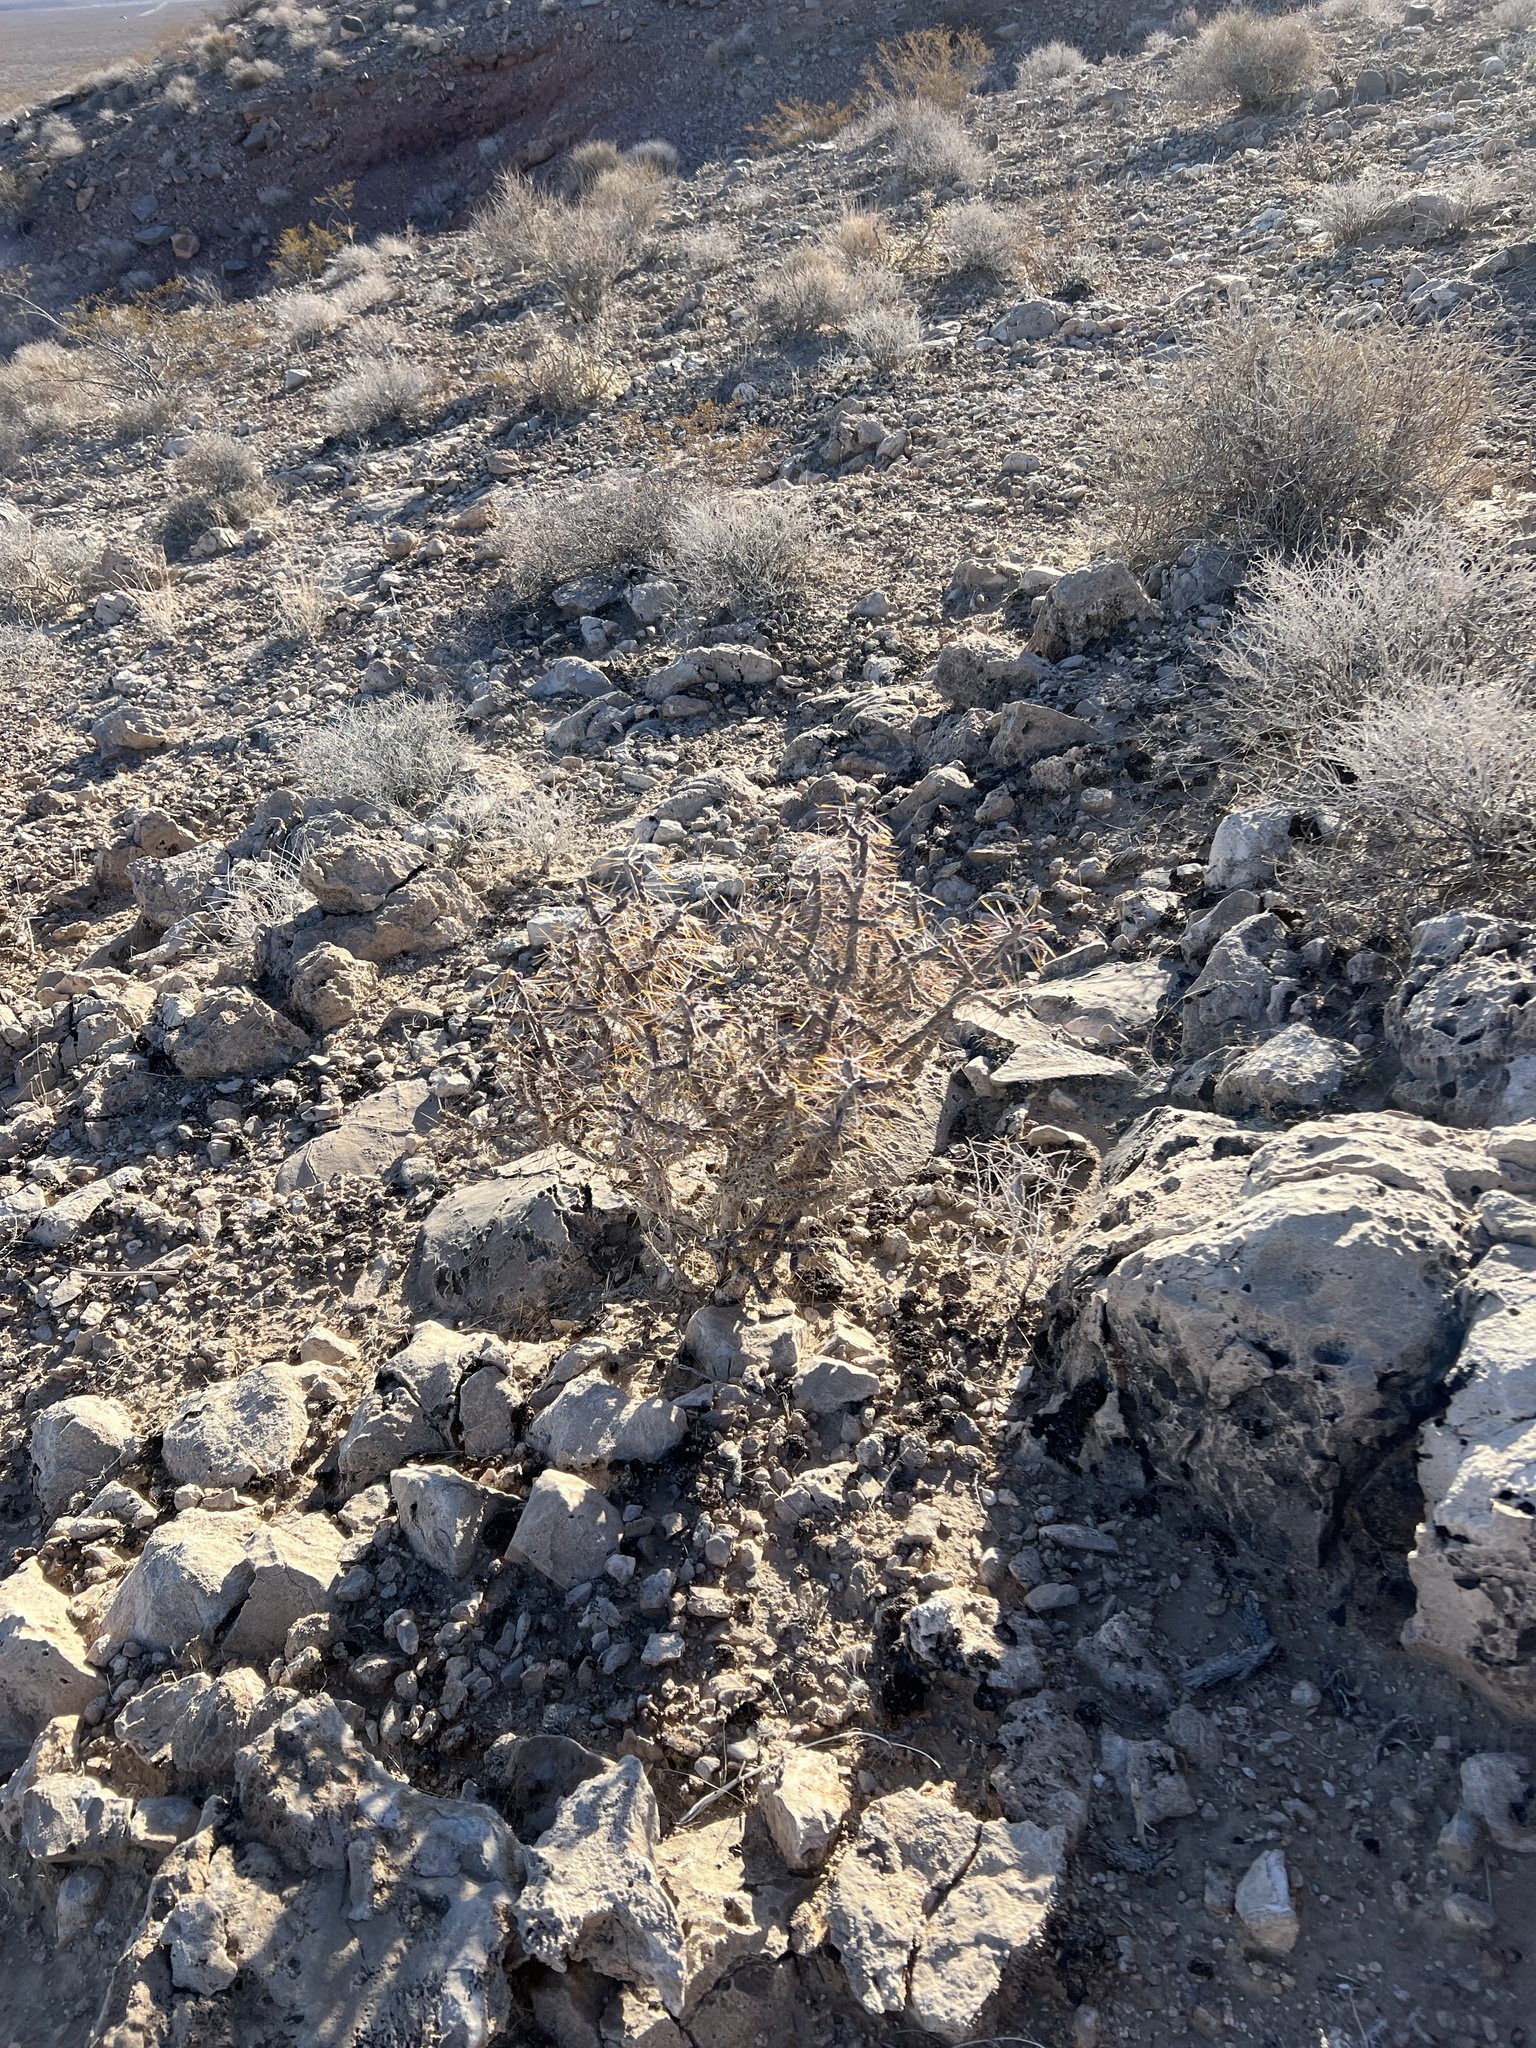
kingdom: Plantae
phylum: Tracheophyta
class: Magnoliopsida
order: Caryophyllales
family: Cactaceae
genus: Cylindropuntia
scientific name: Cylindropuntia ramosissima
